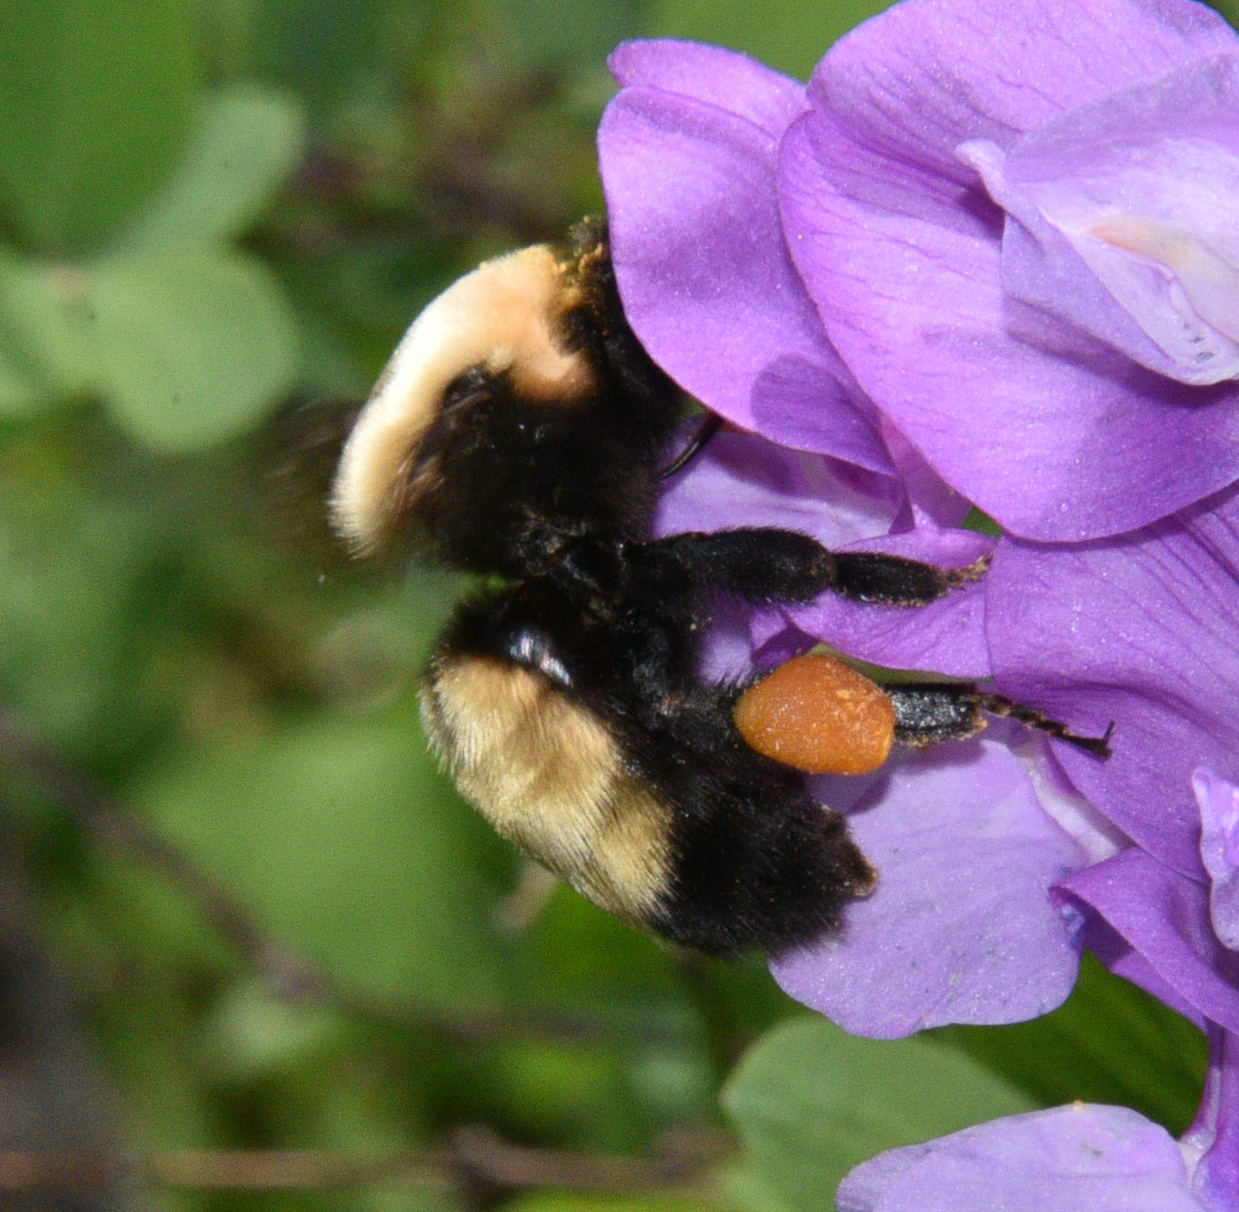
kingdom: Animalia
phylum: Arthropoda
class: Insecta
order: Hymenoptera
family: Apidae
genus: Bombus
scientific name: Bombus nevadensis
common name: Nevada bumble bee
